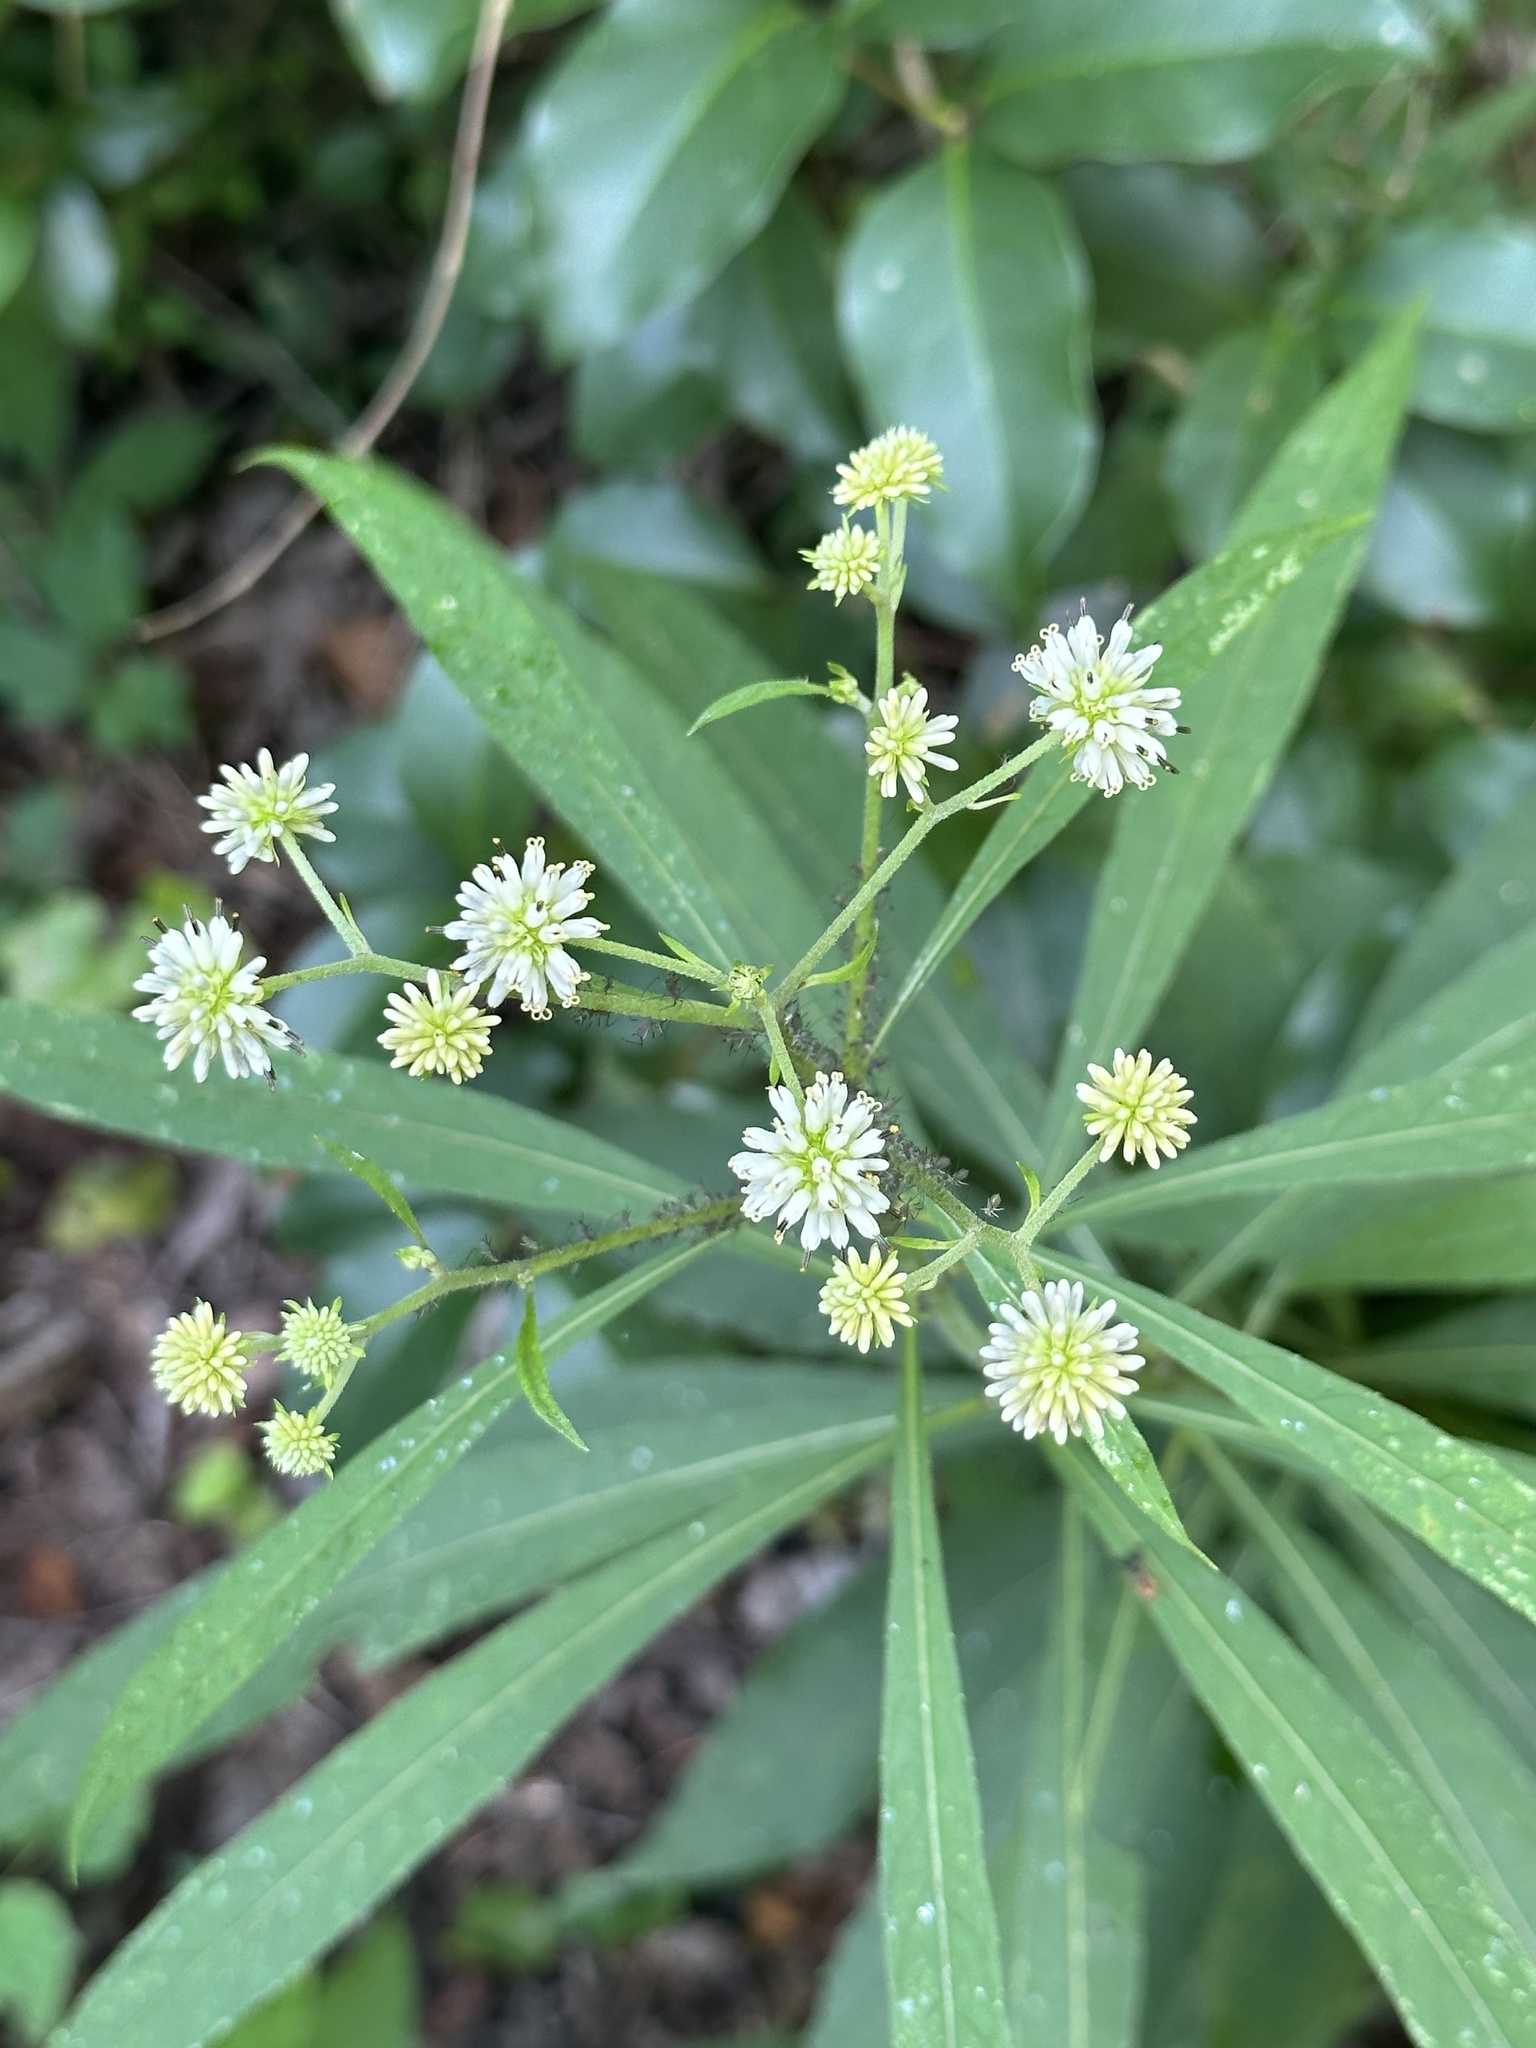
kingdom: Plantae
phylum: Tracheophyta
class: Magnoliopsida
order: Asterales
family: Asteraceae
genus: Verbesina
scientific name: Verbesina walteri
